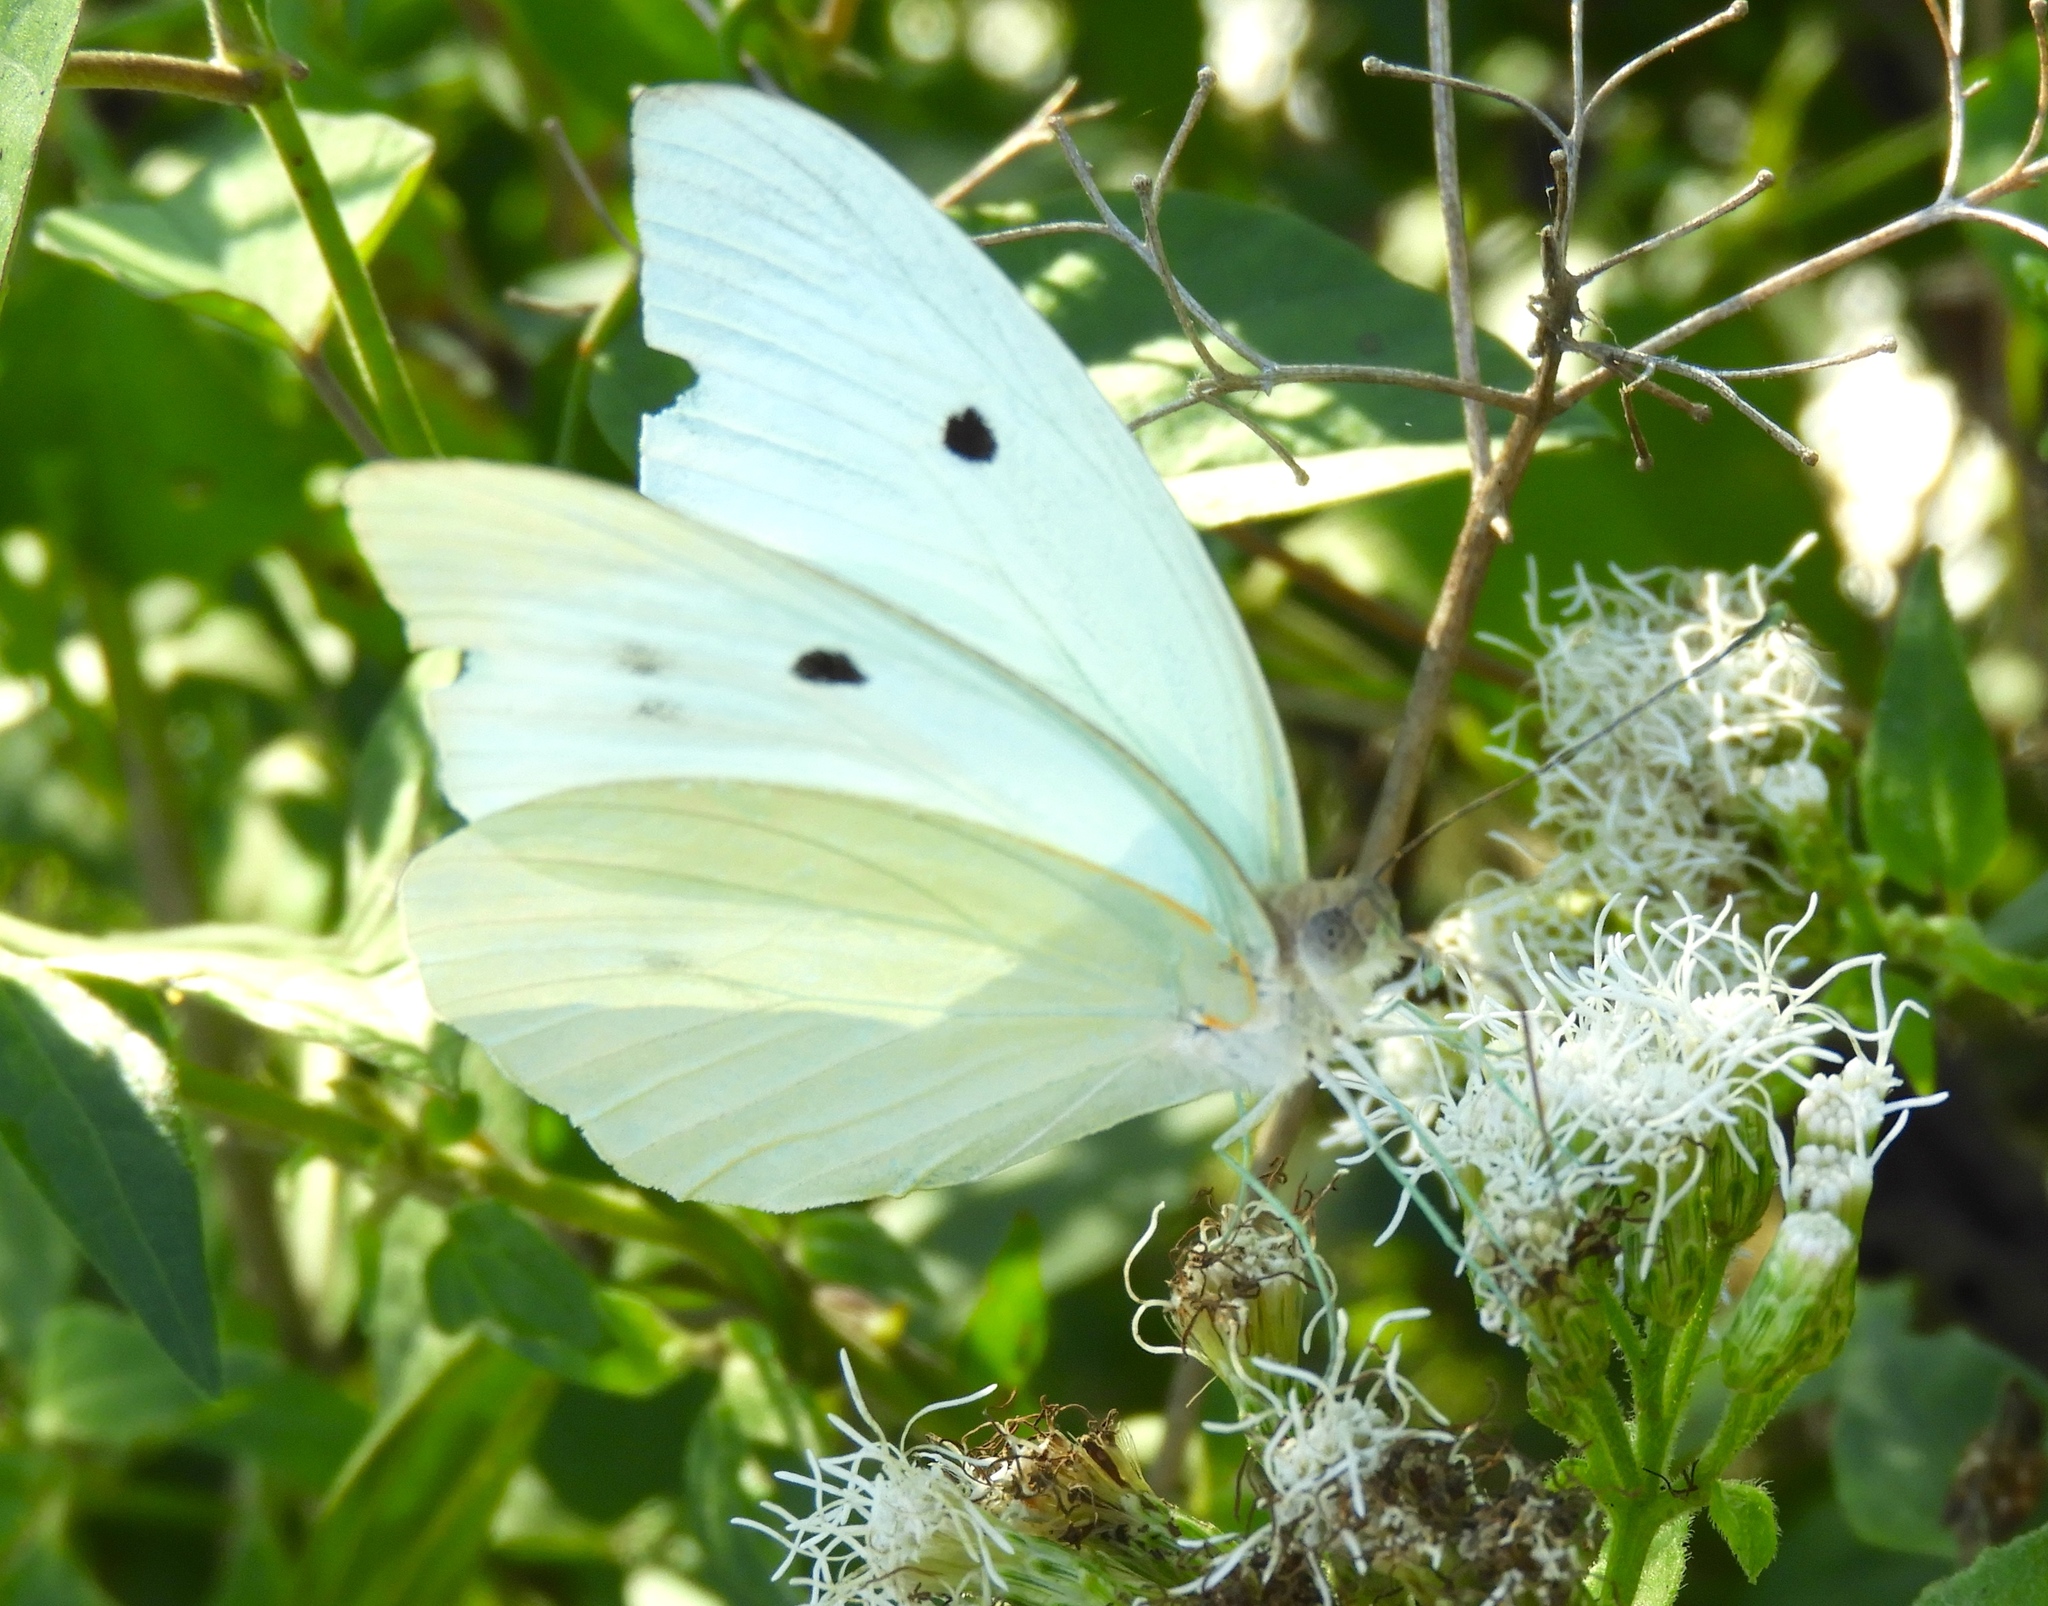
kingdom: Animalia
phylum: Arthropoda
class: Insecta
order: Lepidoptera
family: Pieridae
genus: Ganyra
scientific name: Ganyra josephina
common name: Giant white
